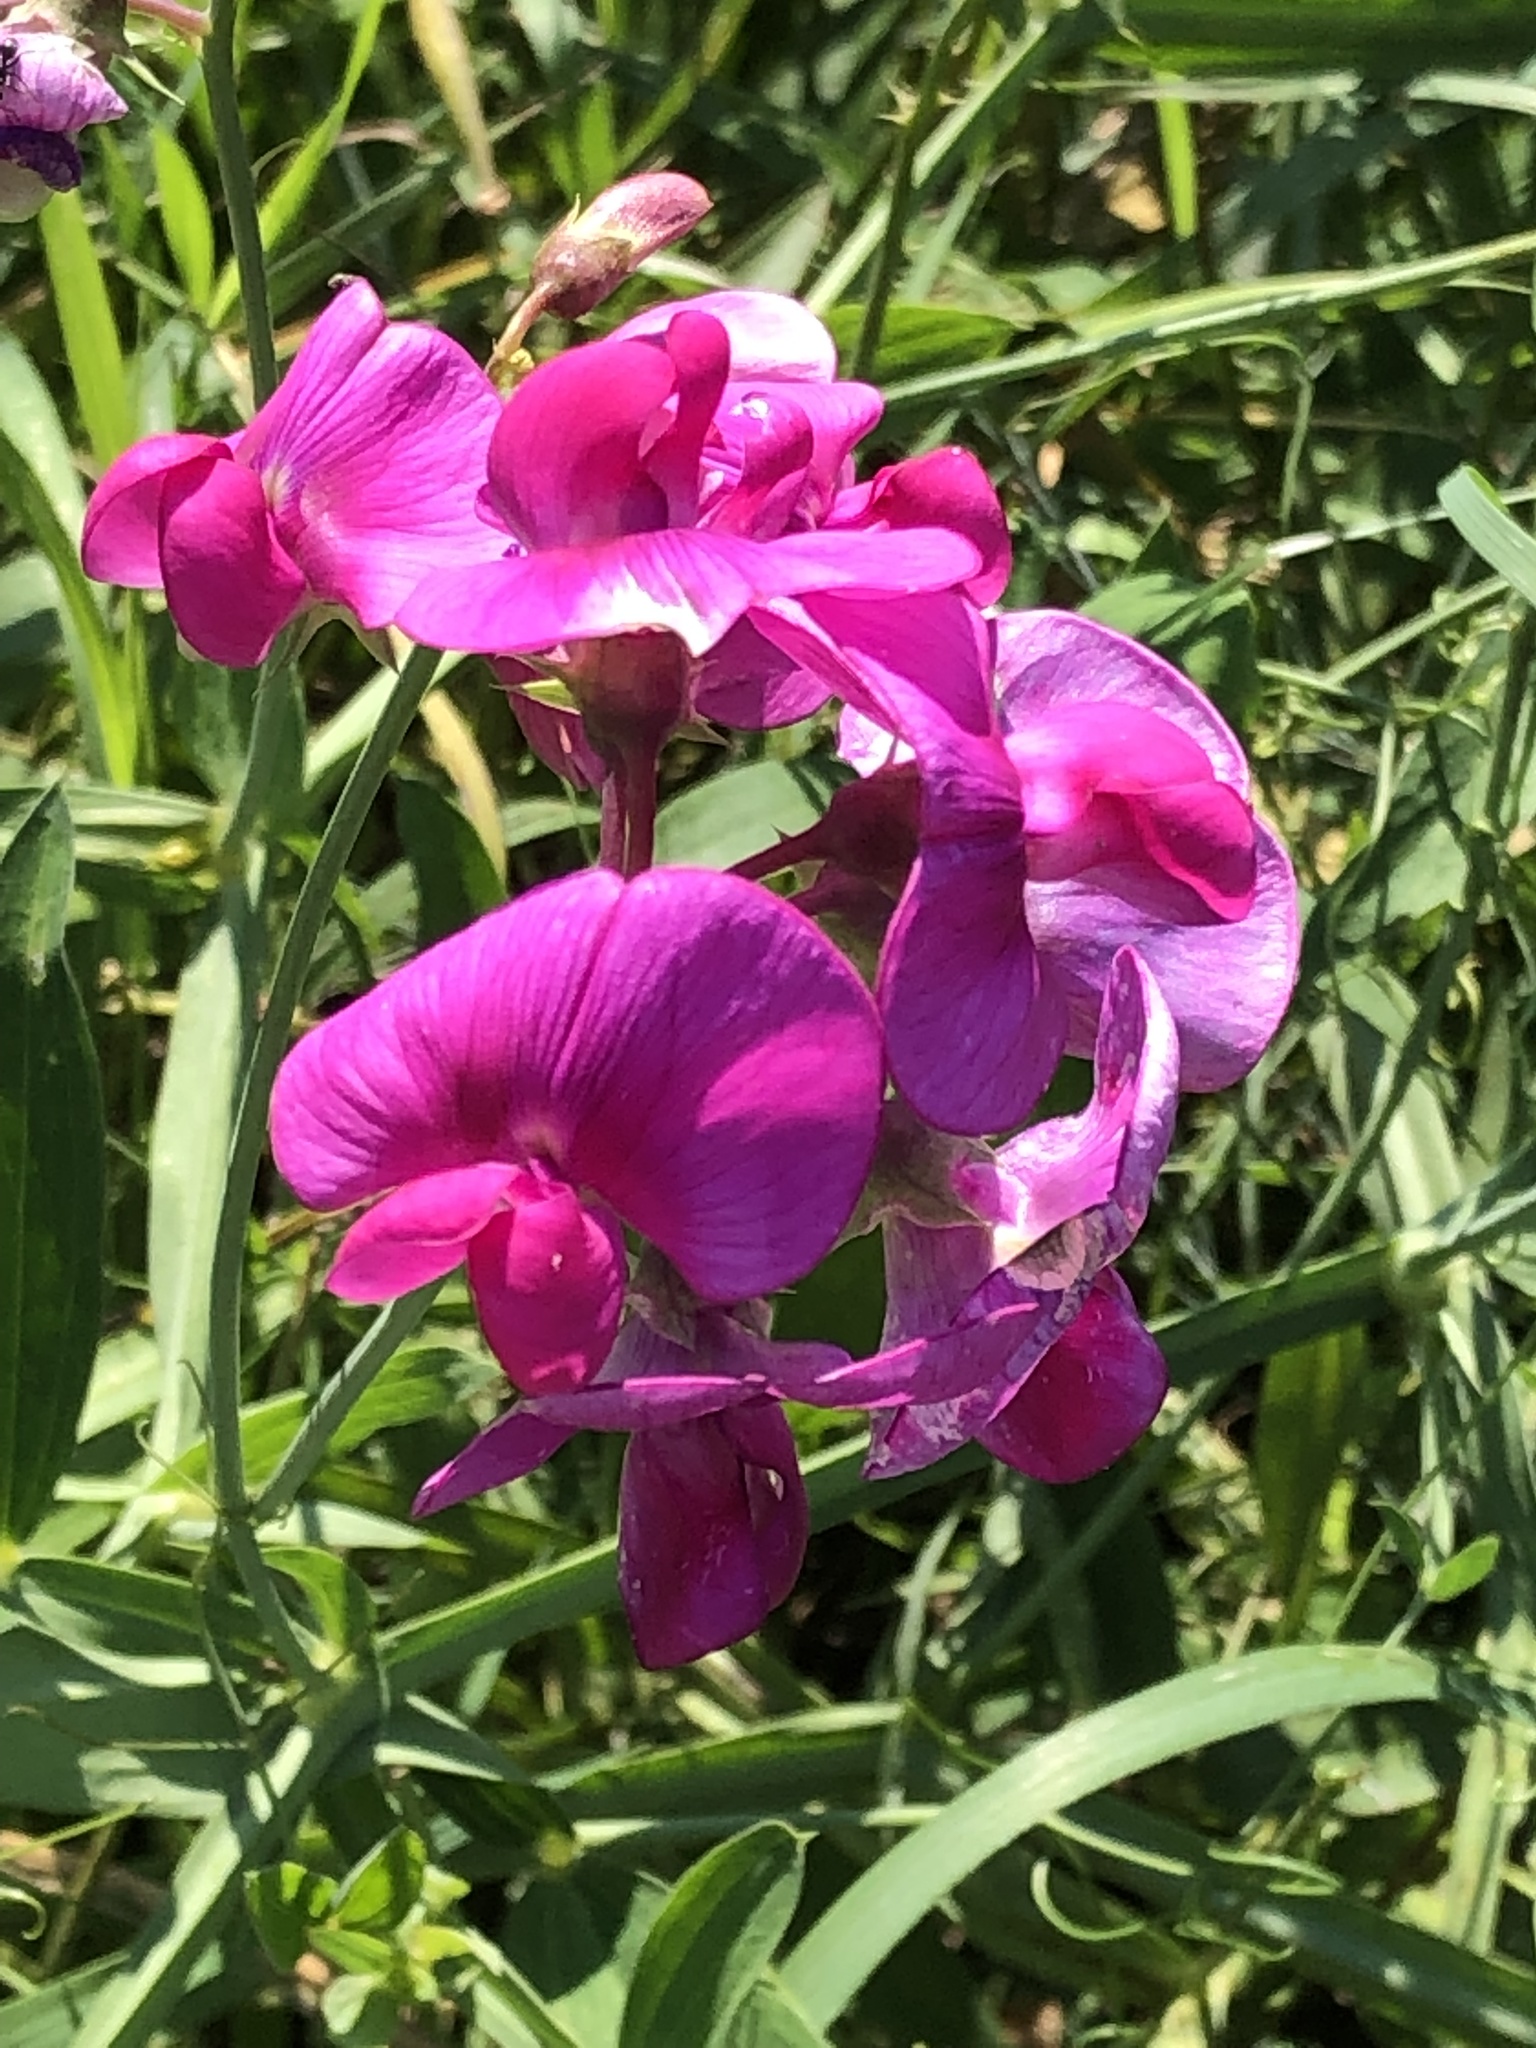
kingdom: Plantae
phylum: Tracheophyta
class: Magnoliopsida
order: Fabales
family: Fabaceae
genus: Lathyrus
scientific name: Lathyrus latifolius
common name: Perennial pea
